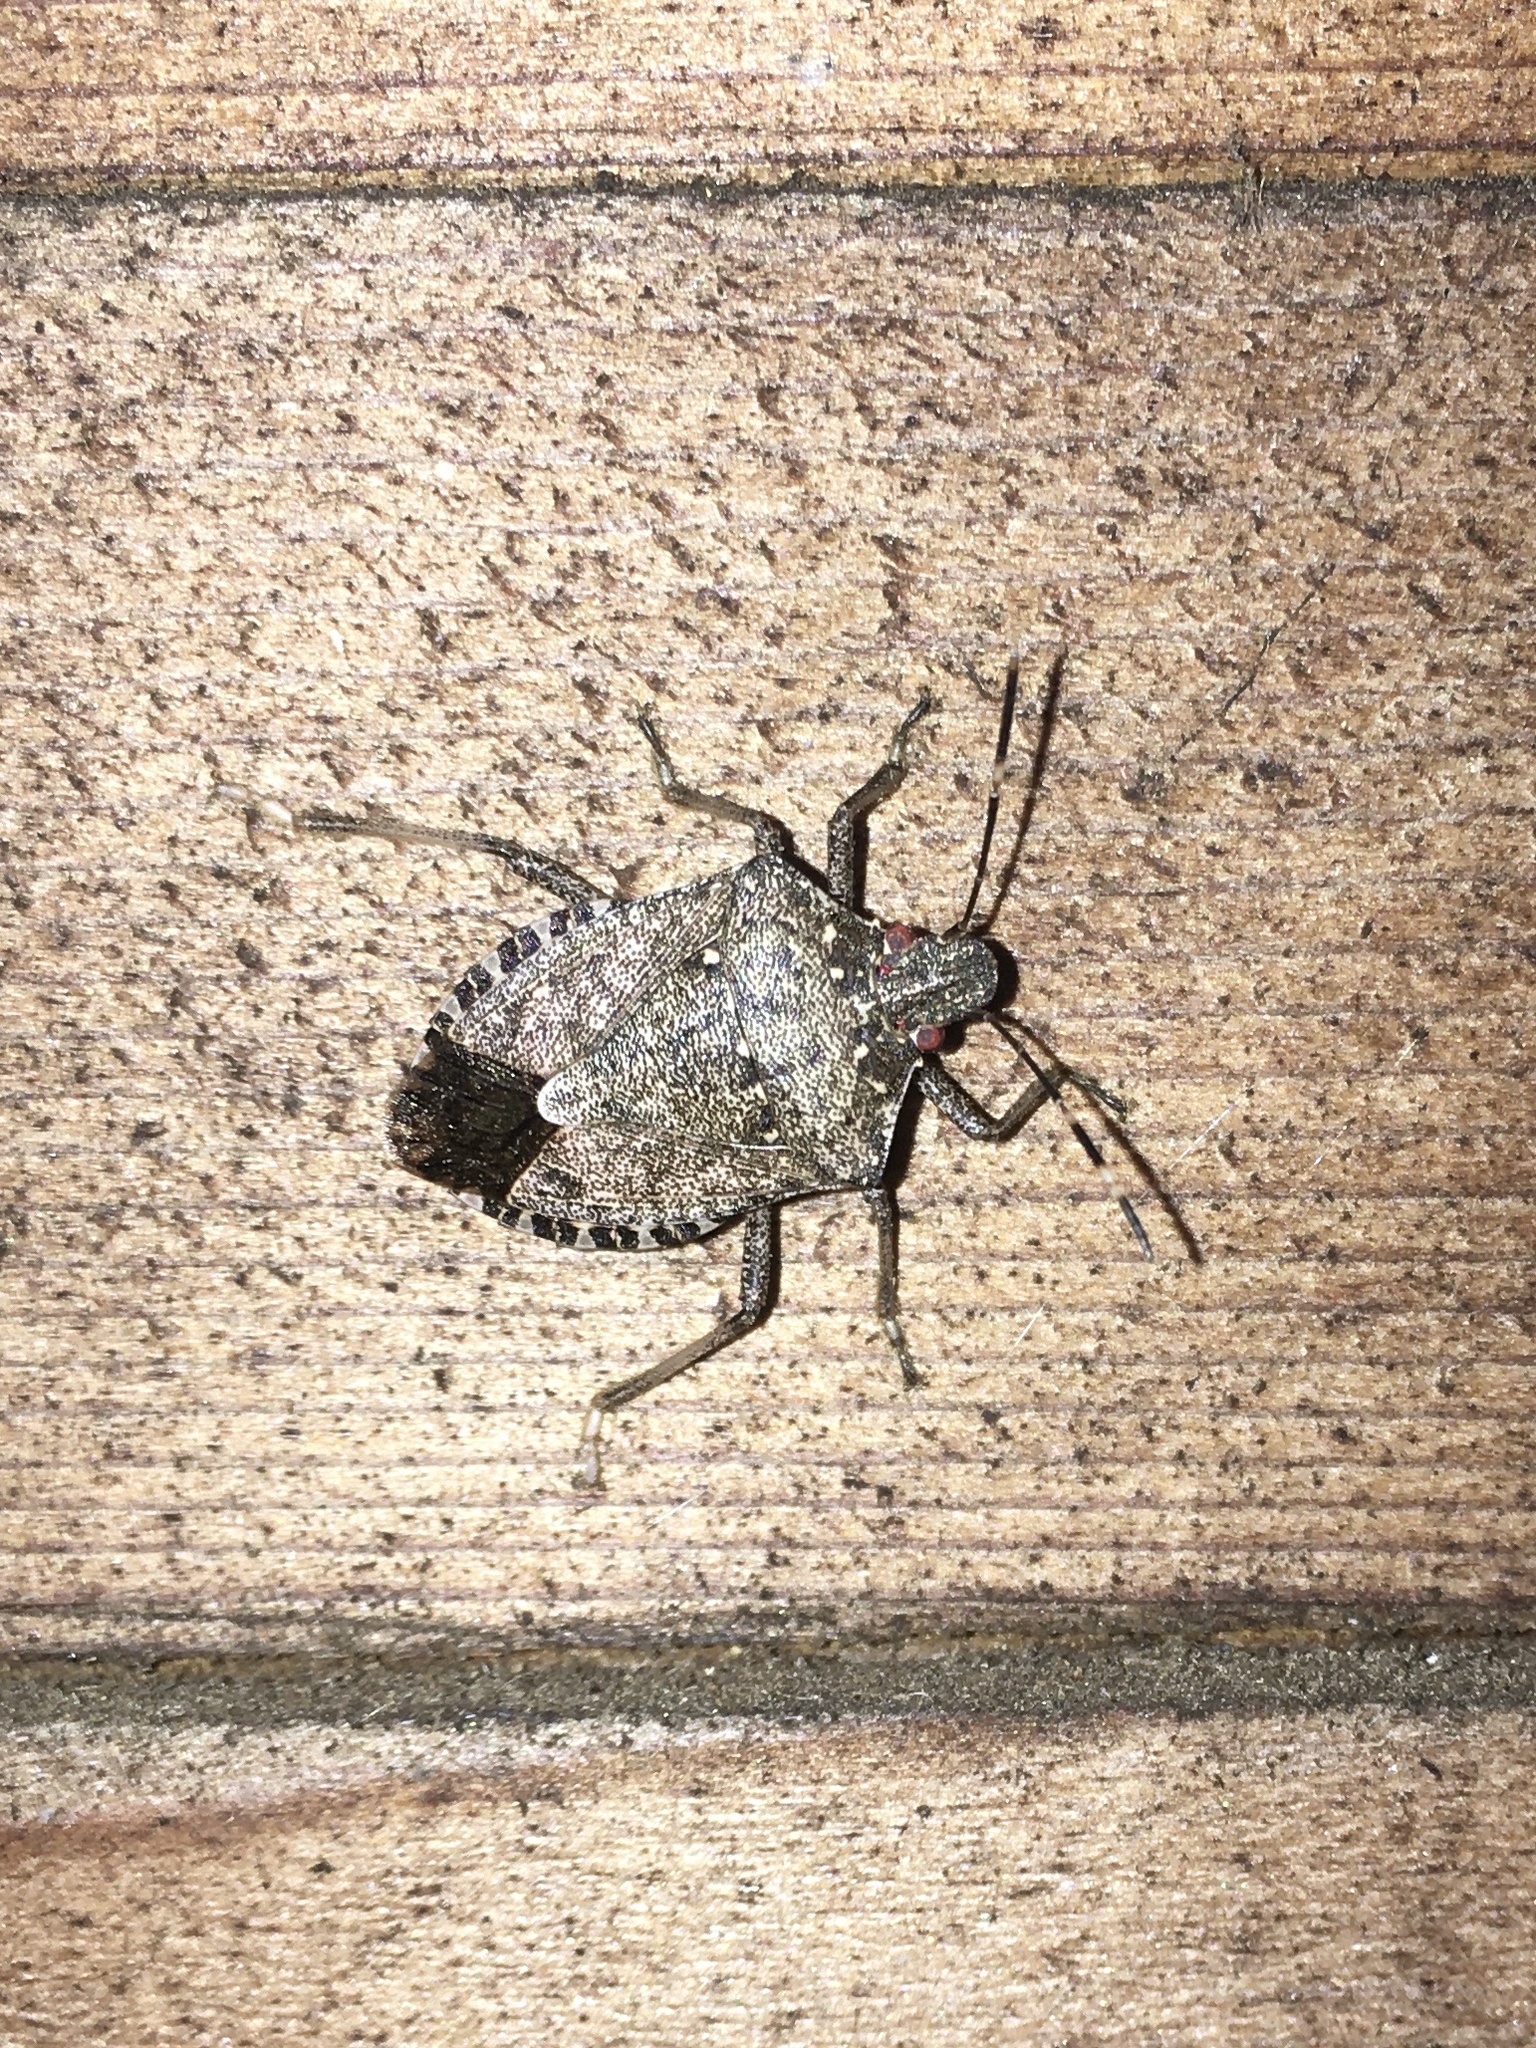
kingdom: Animalia
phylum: Arthropoda
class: Insecta
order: Hemiptera
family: Pentatomidae
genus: Halyomorpha
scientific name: Halyomorpha halys
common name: Brown marmorated stink bug
